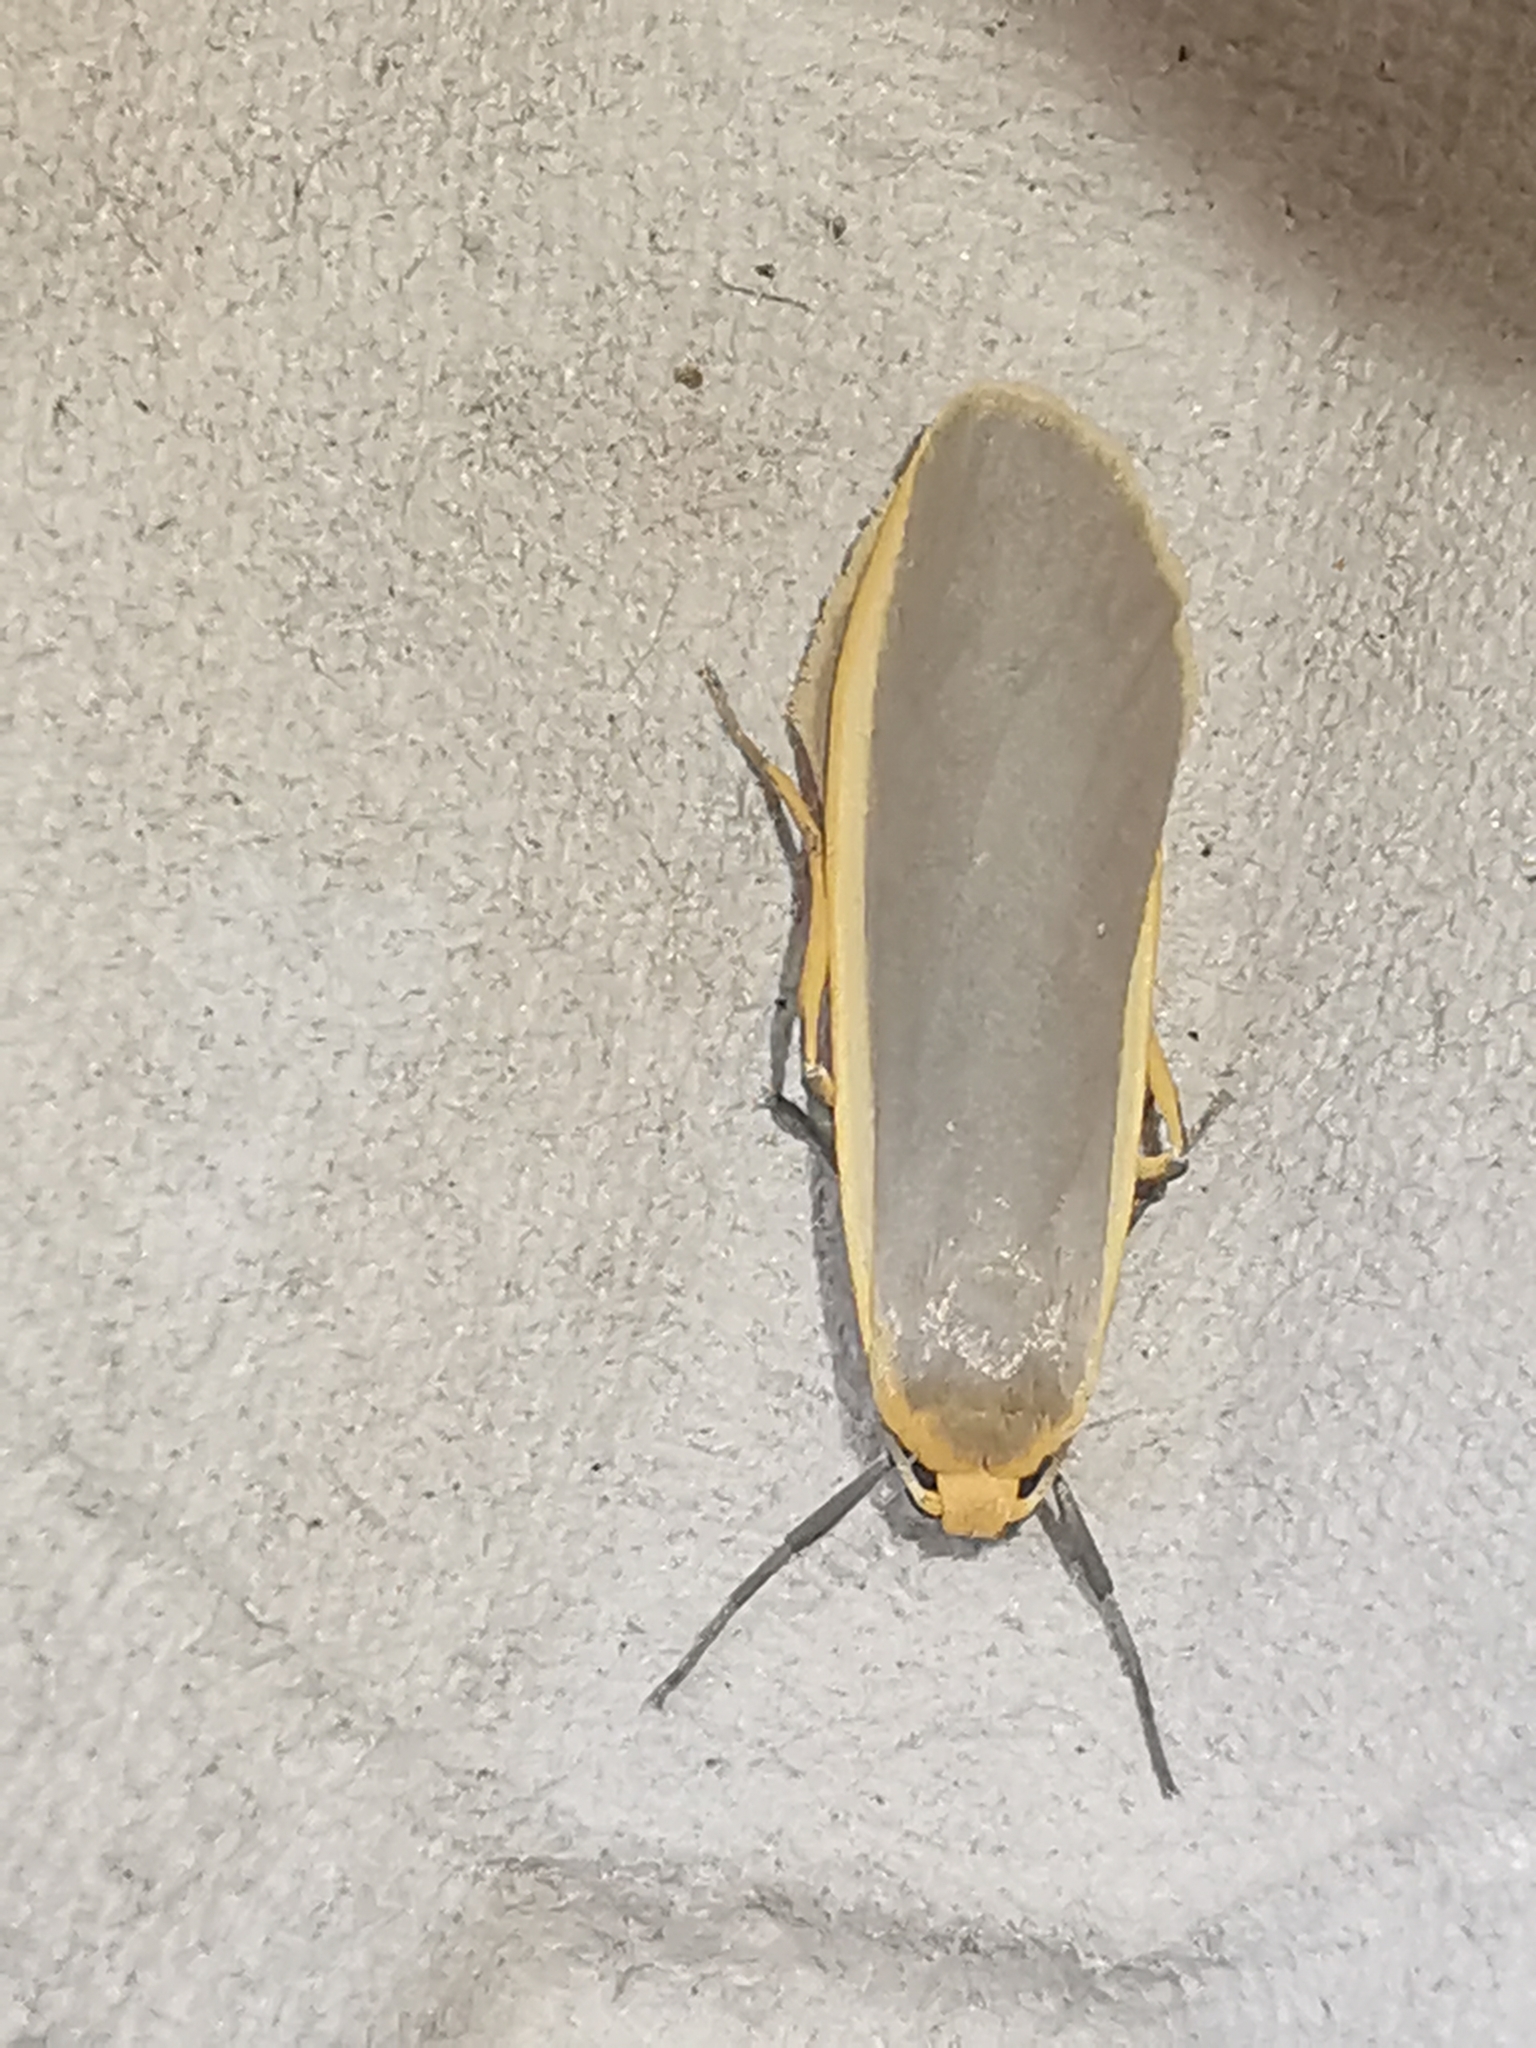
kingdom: Animalia
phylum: Arthropoda
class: Insecta
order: Lepidoptera
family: Erebidae
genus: Nyea
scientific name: Nyea lurideola
